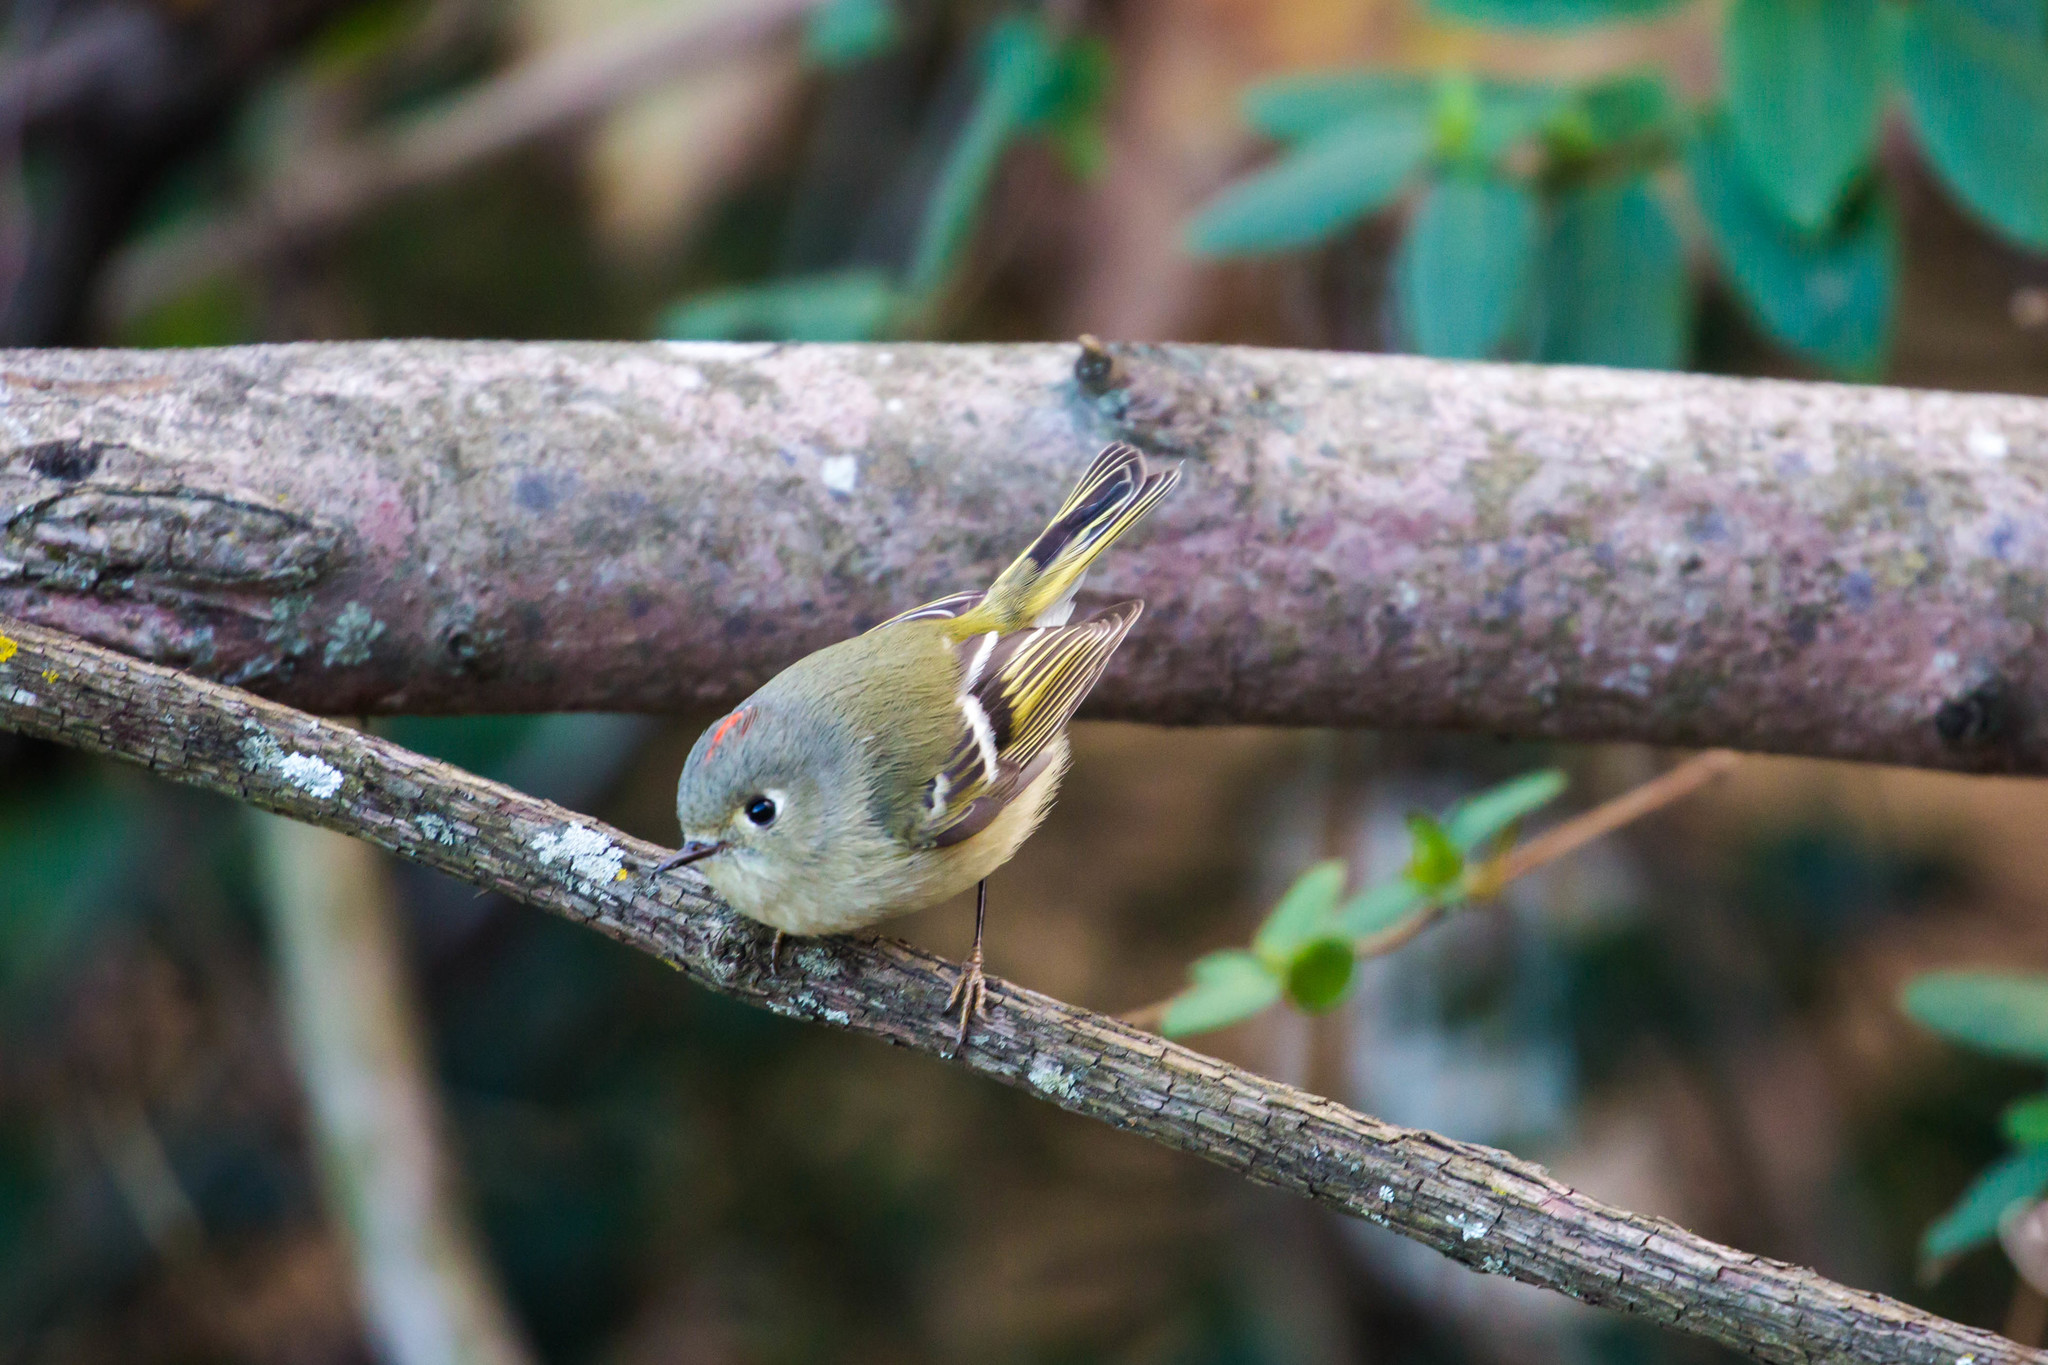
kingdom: Animalia
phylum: Chordata
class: Aves
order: Passeriformes
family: Regulidae
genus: Regulus
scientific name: Regulus calendula
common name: Ruby-crowned kinglet
